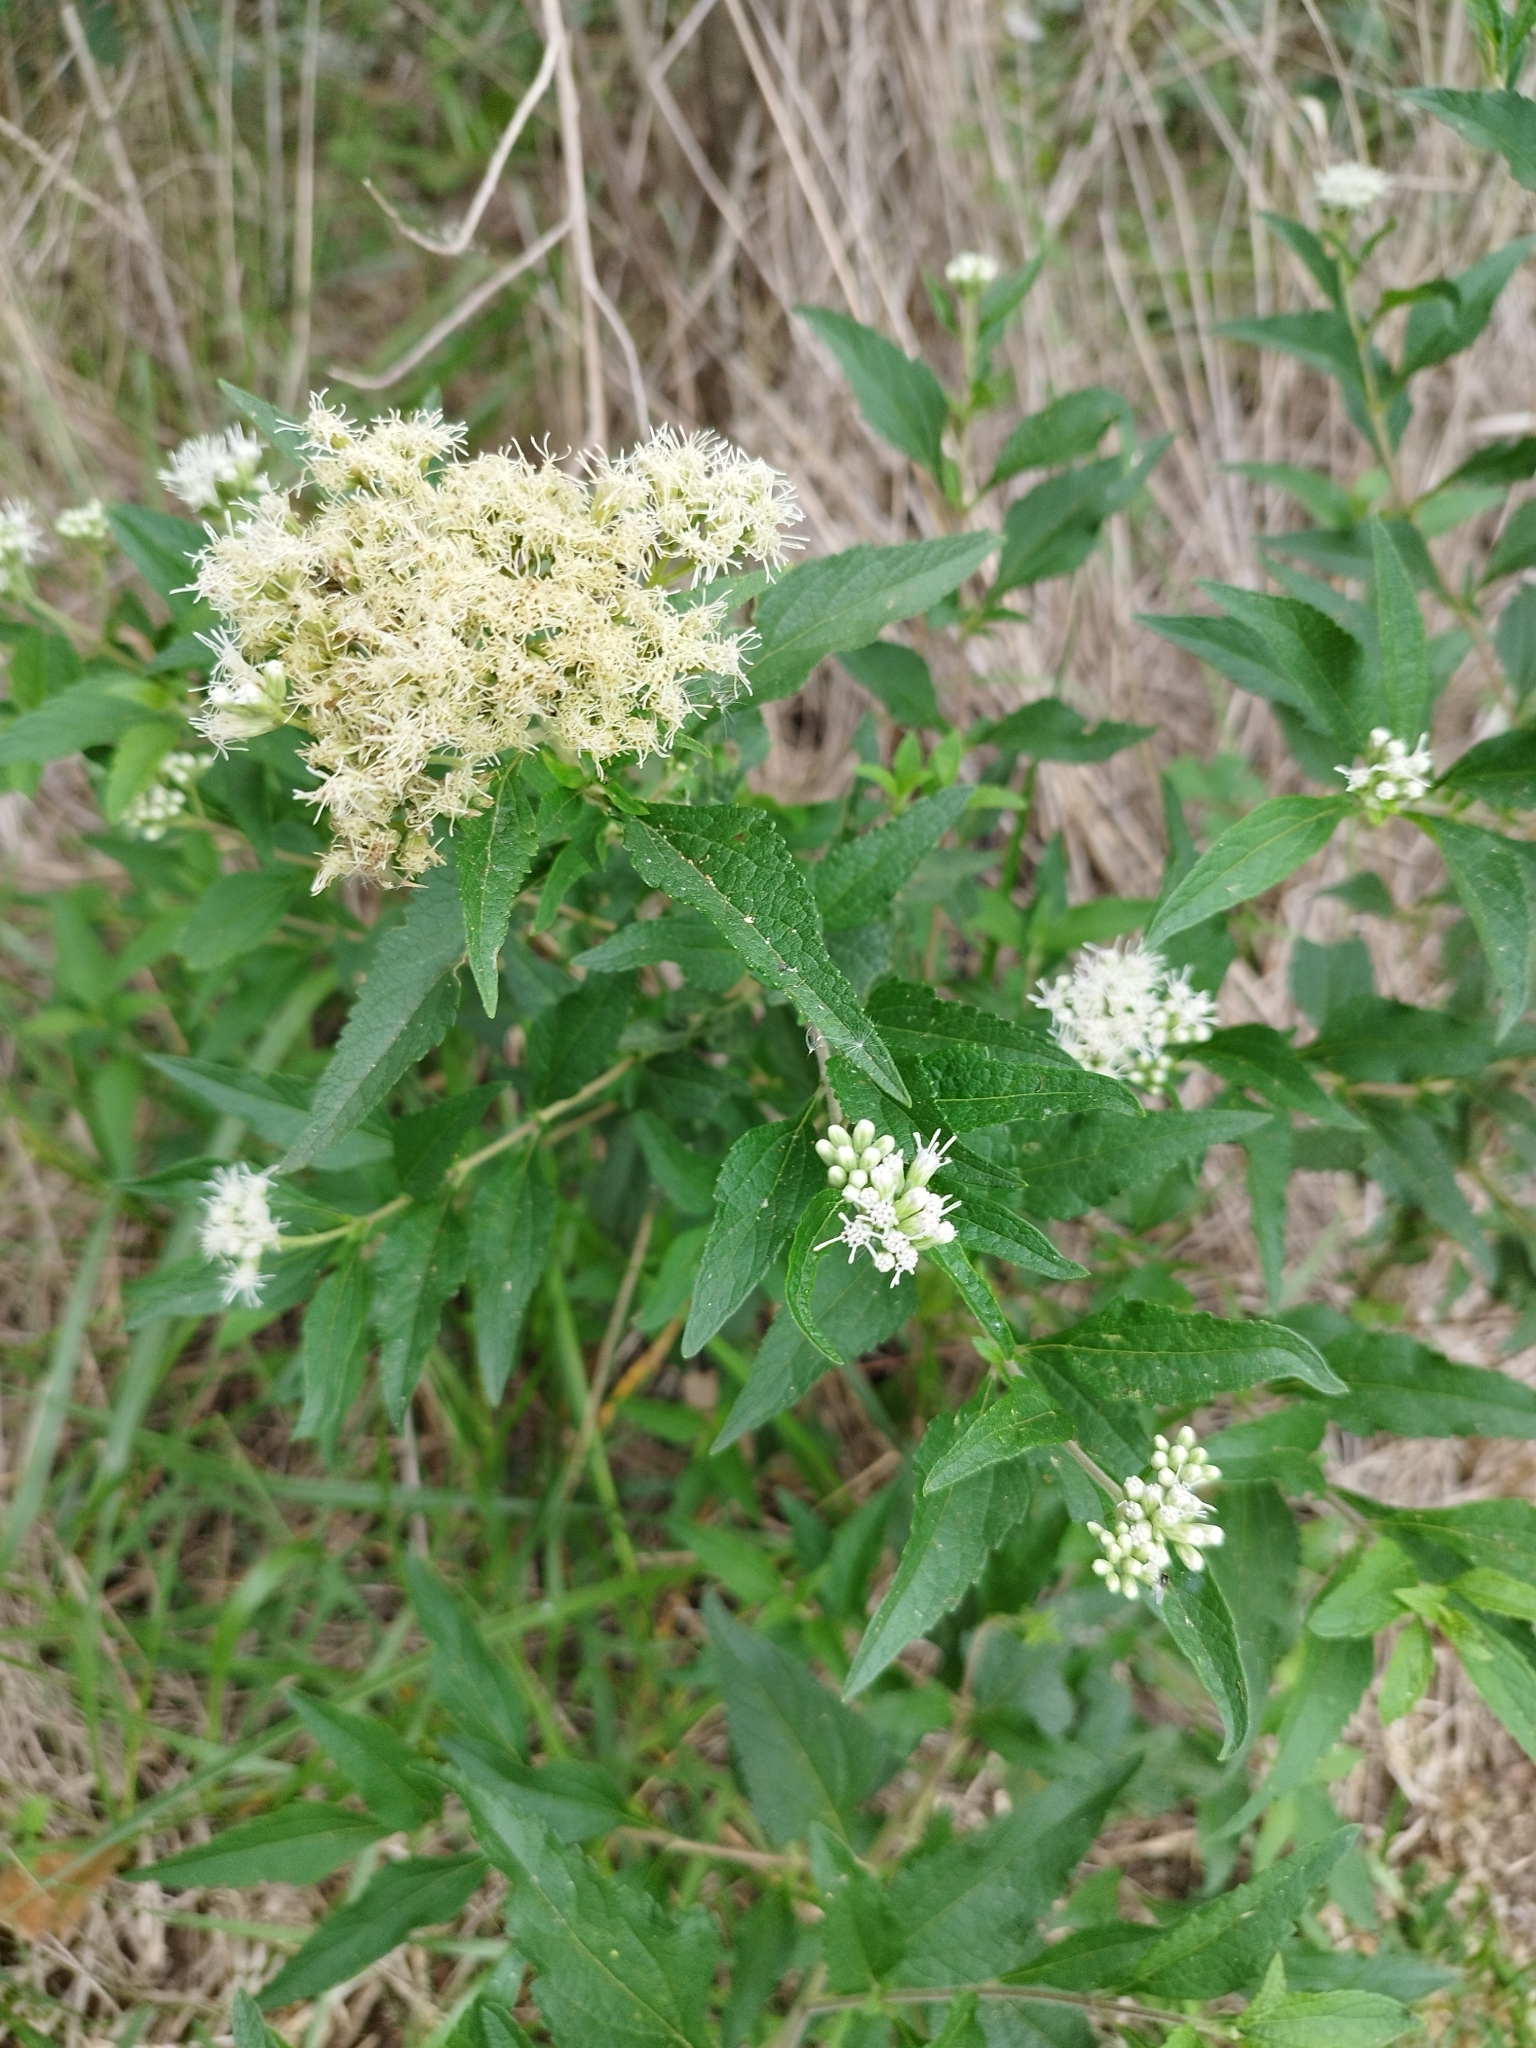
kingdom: Plantae
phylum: Tracheophyta
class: Magnoliopsida
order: Asterales
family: Asteraceae
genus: Austroeupatorium
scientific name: Austroeupatorium inulifolium
